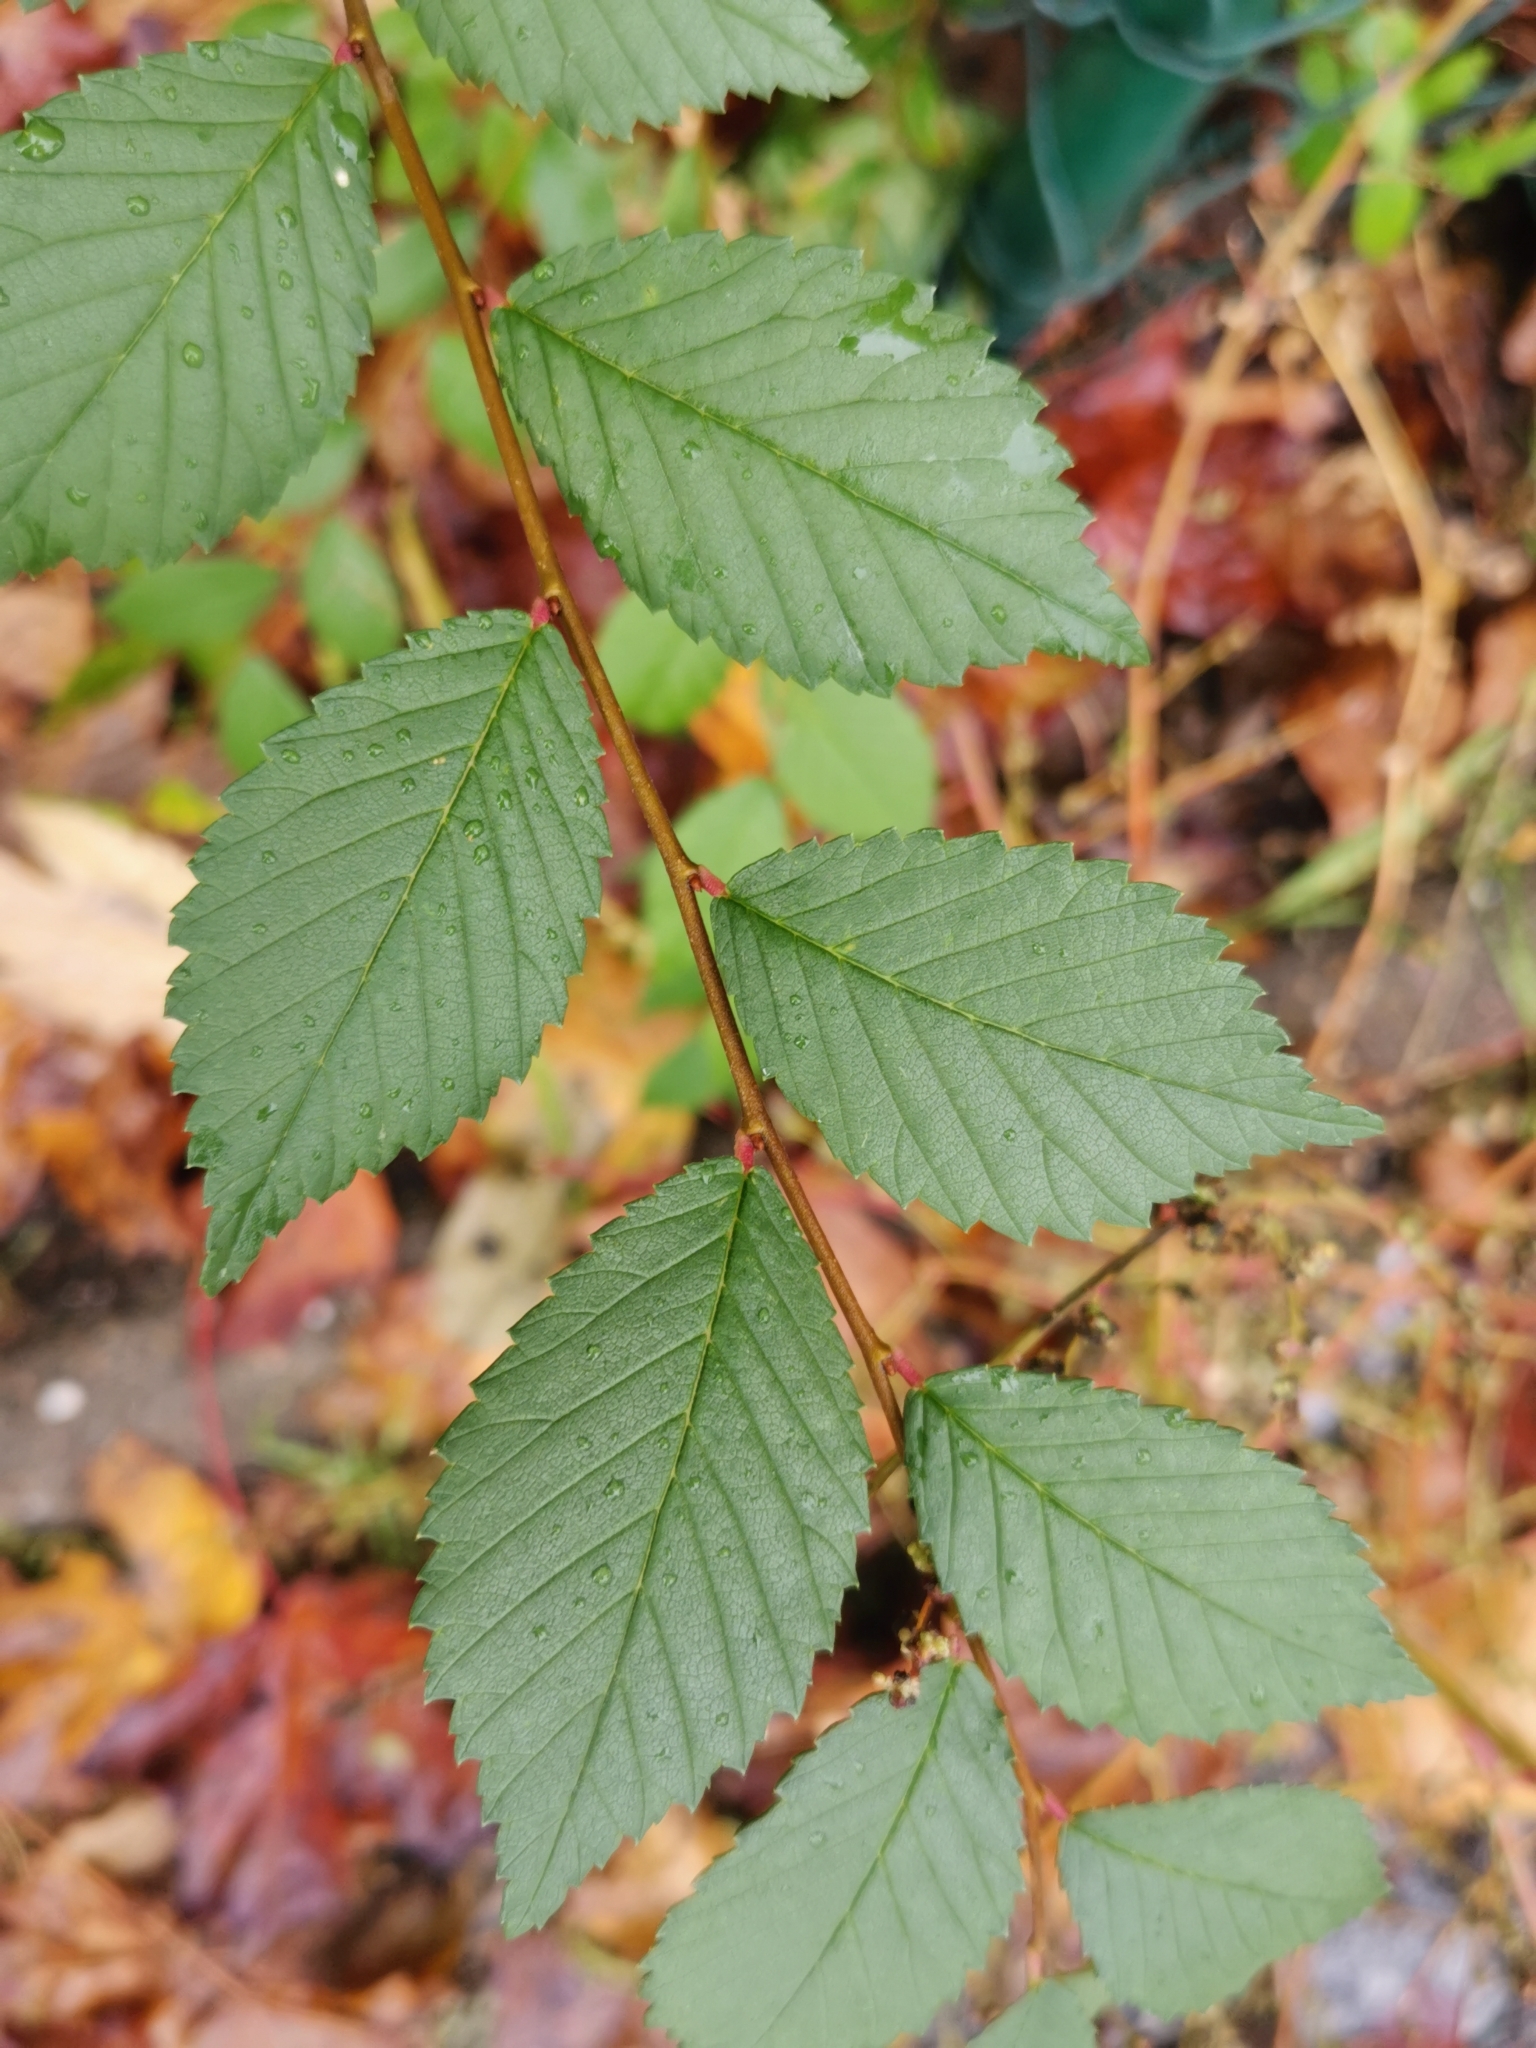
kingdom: Plantae
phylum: Tracheophyta
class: Magnoliopsida
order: Rosales
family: Ulmaceae
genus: Ulmus
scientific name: Ulmus minor
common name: Small-leaved elm
